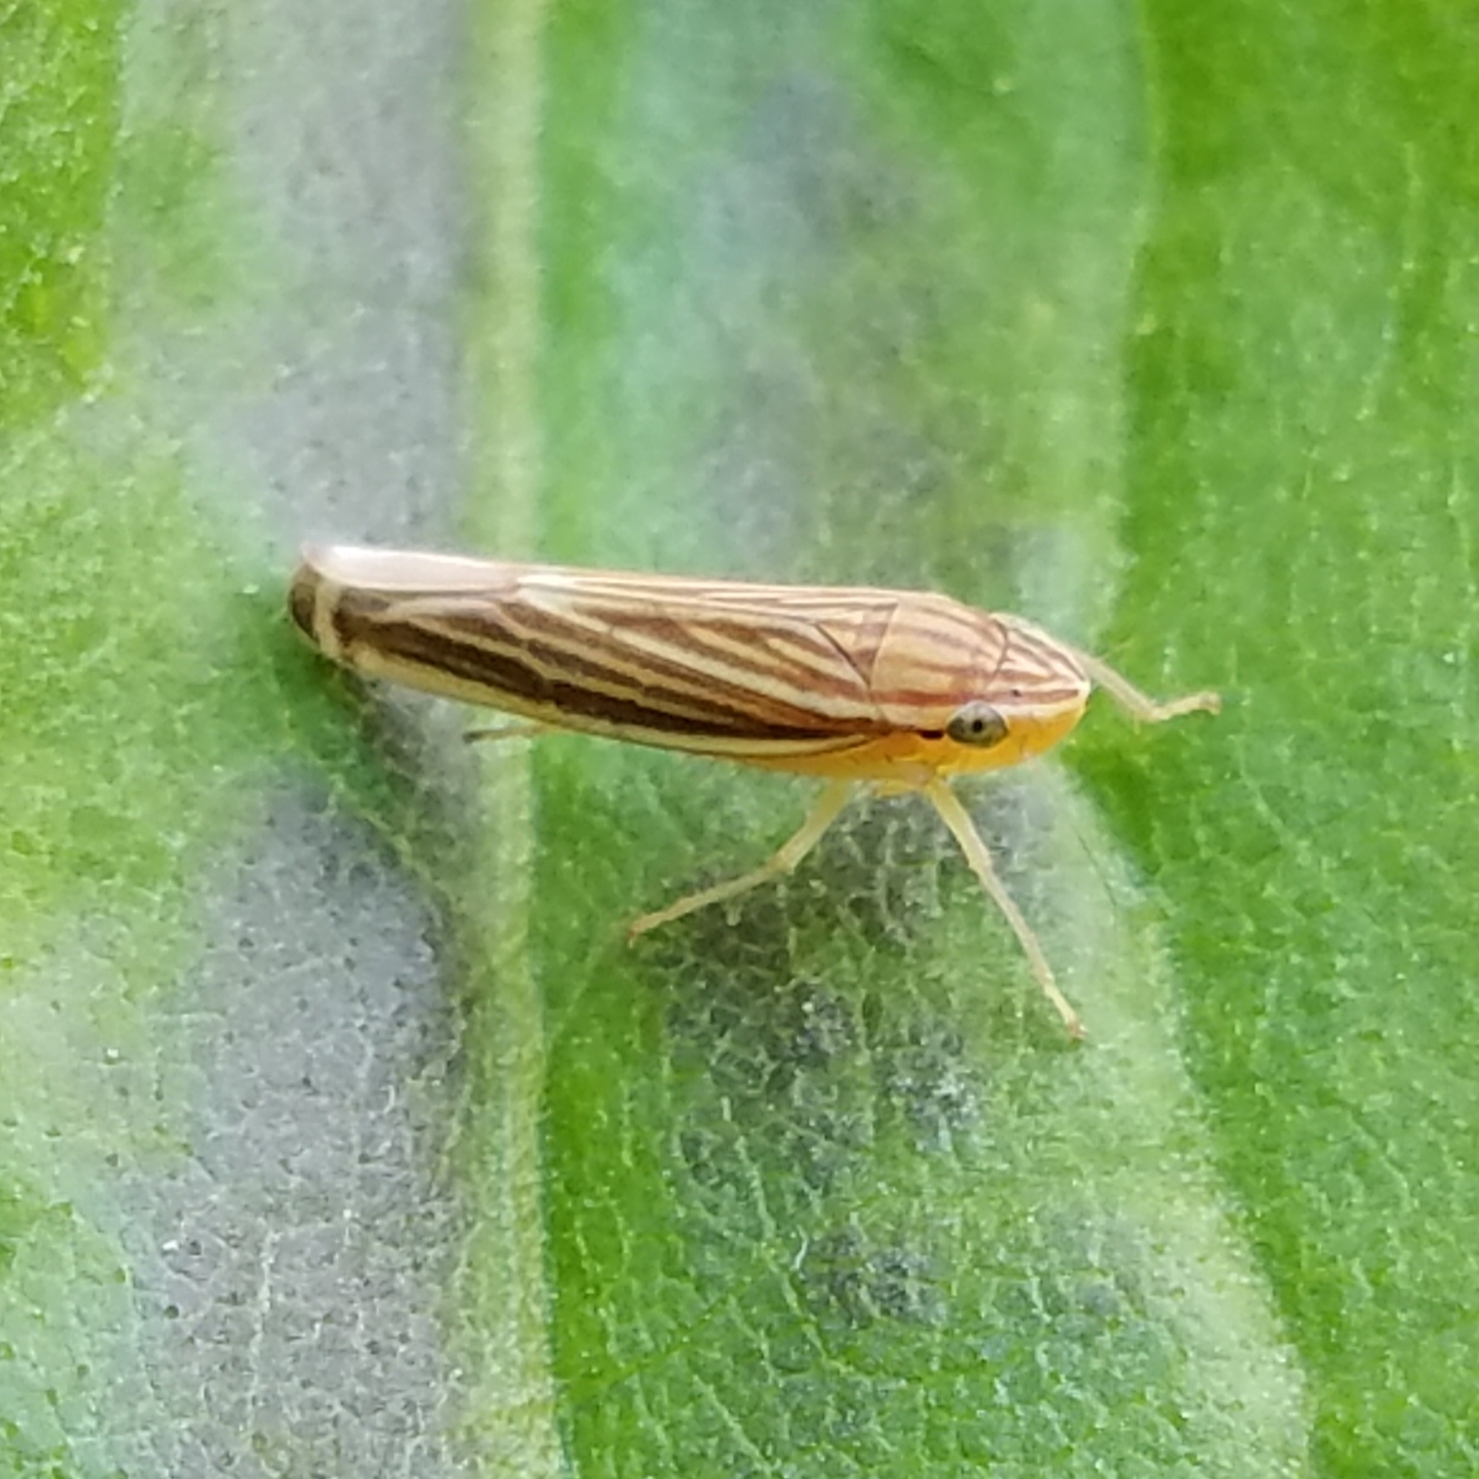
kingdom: Animalia
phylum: Arthropoda
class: Insecta
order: Hemiptera
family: Cicadellidae
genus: Sibovia
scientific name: Sibovia occatoria
